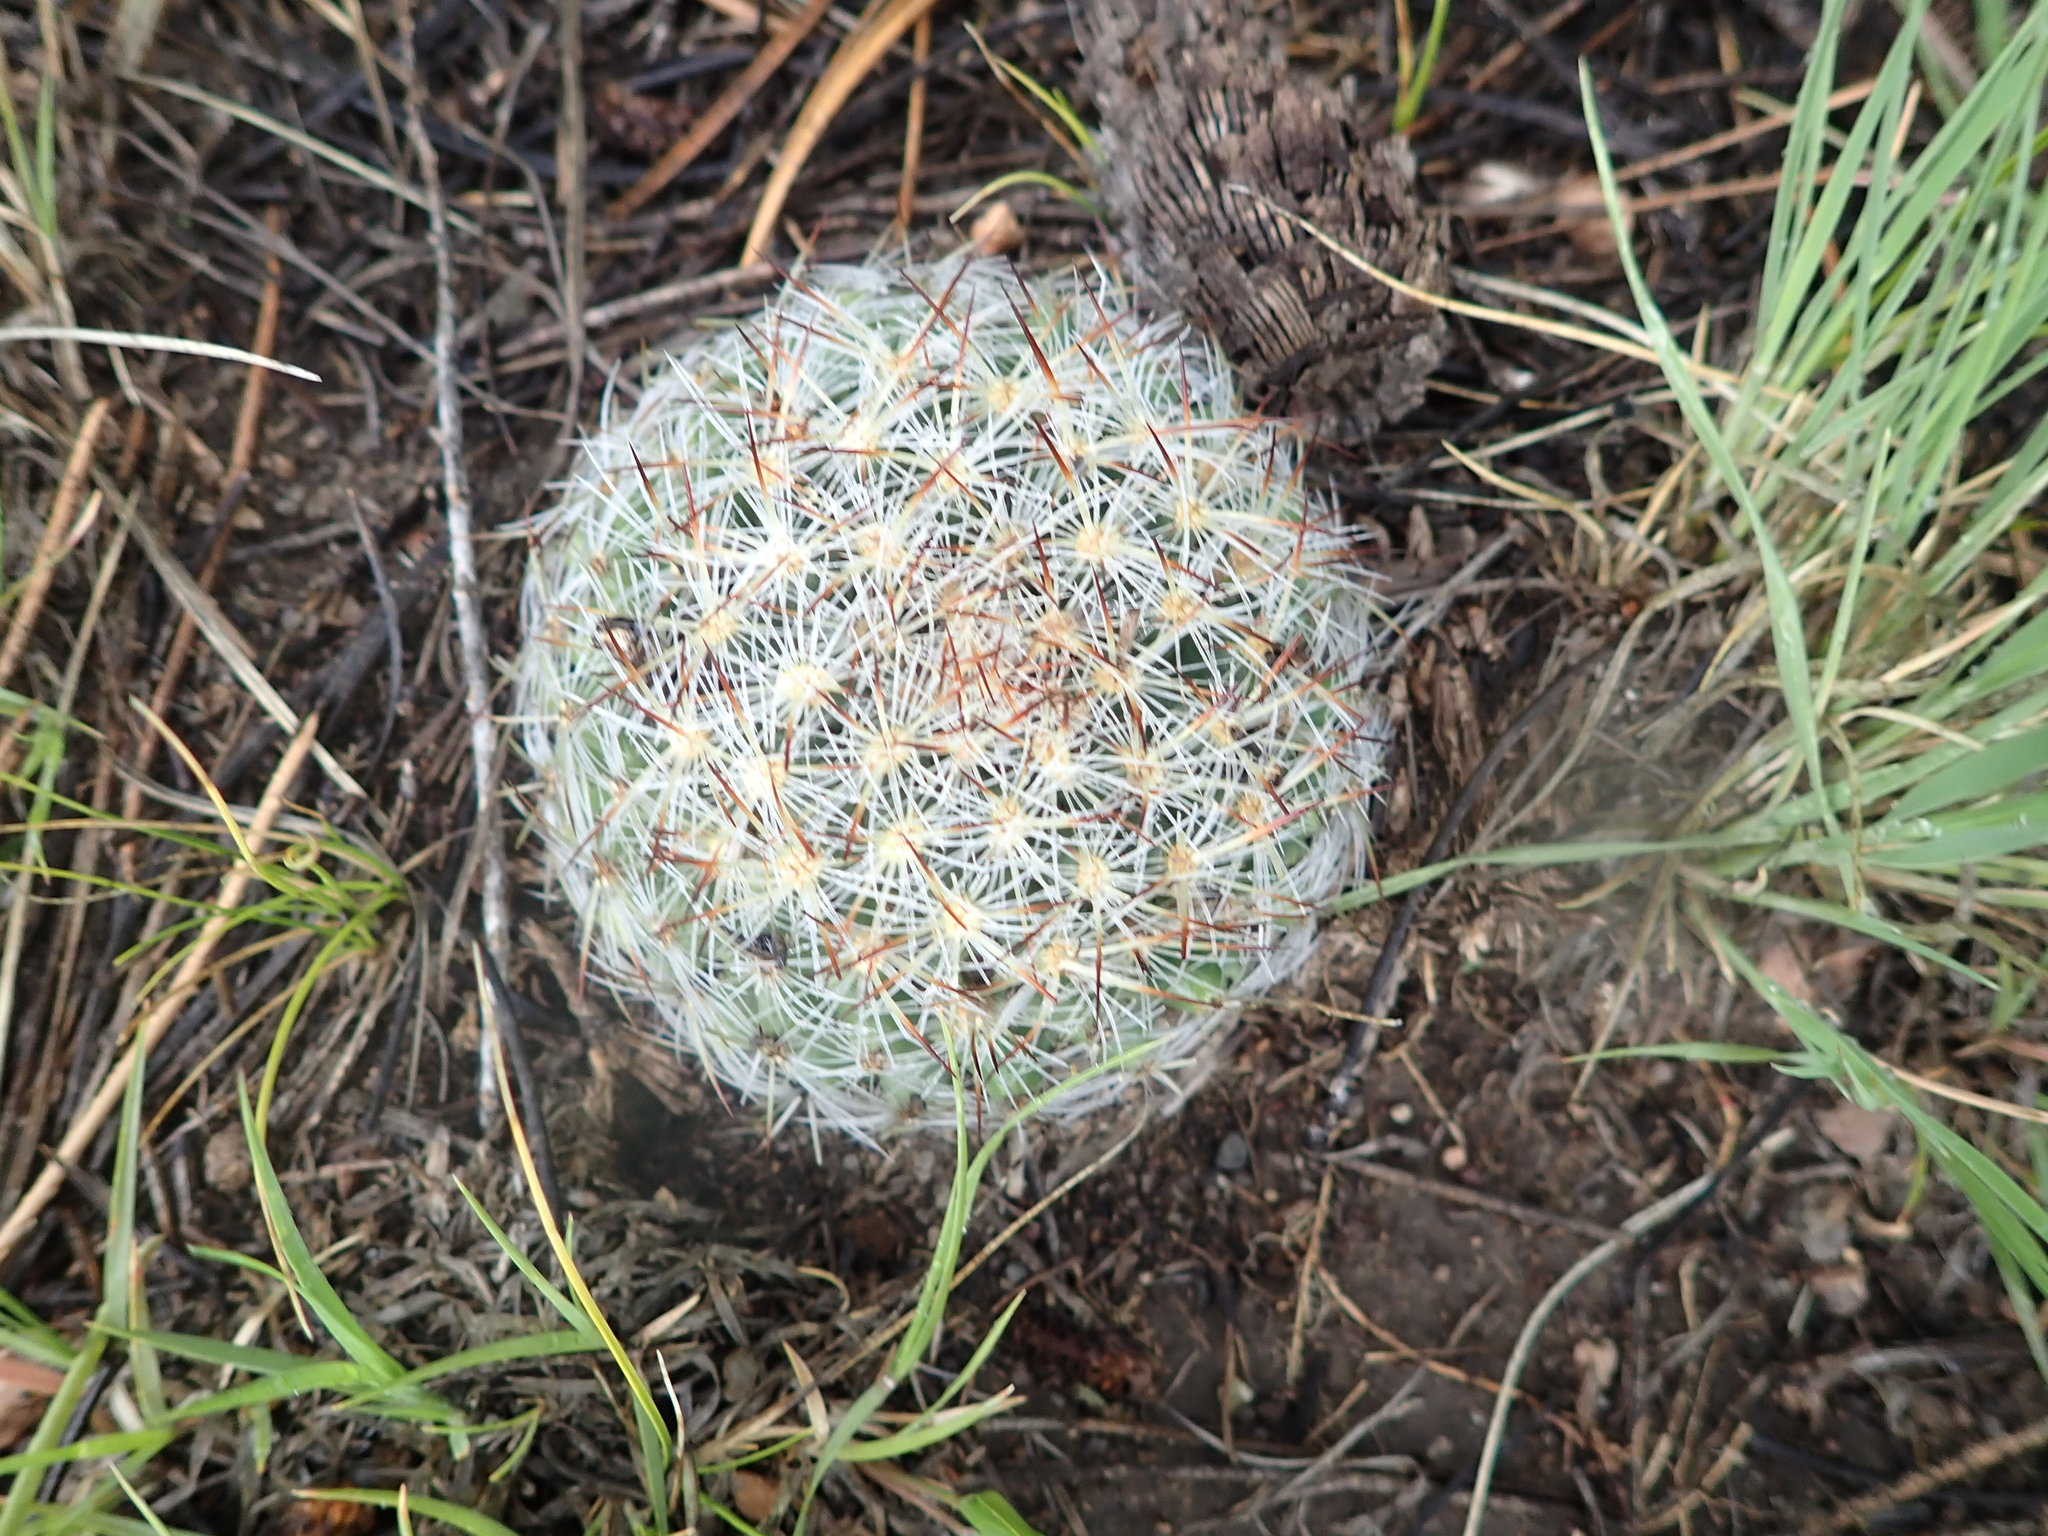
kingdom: Plantae
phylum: Tracheophyta
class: Magnoliopsida
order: Caryophyllales
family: Cactaceae
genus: Pediocactus
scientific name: Pediocactus simpsonii
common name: Simpson's hedgehog cactus
